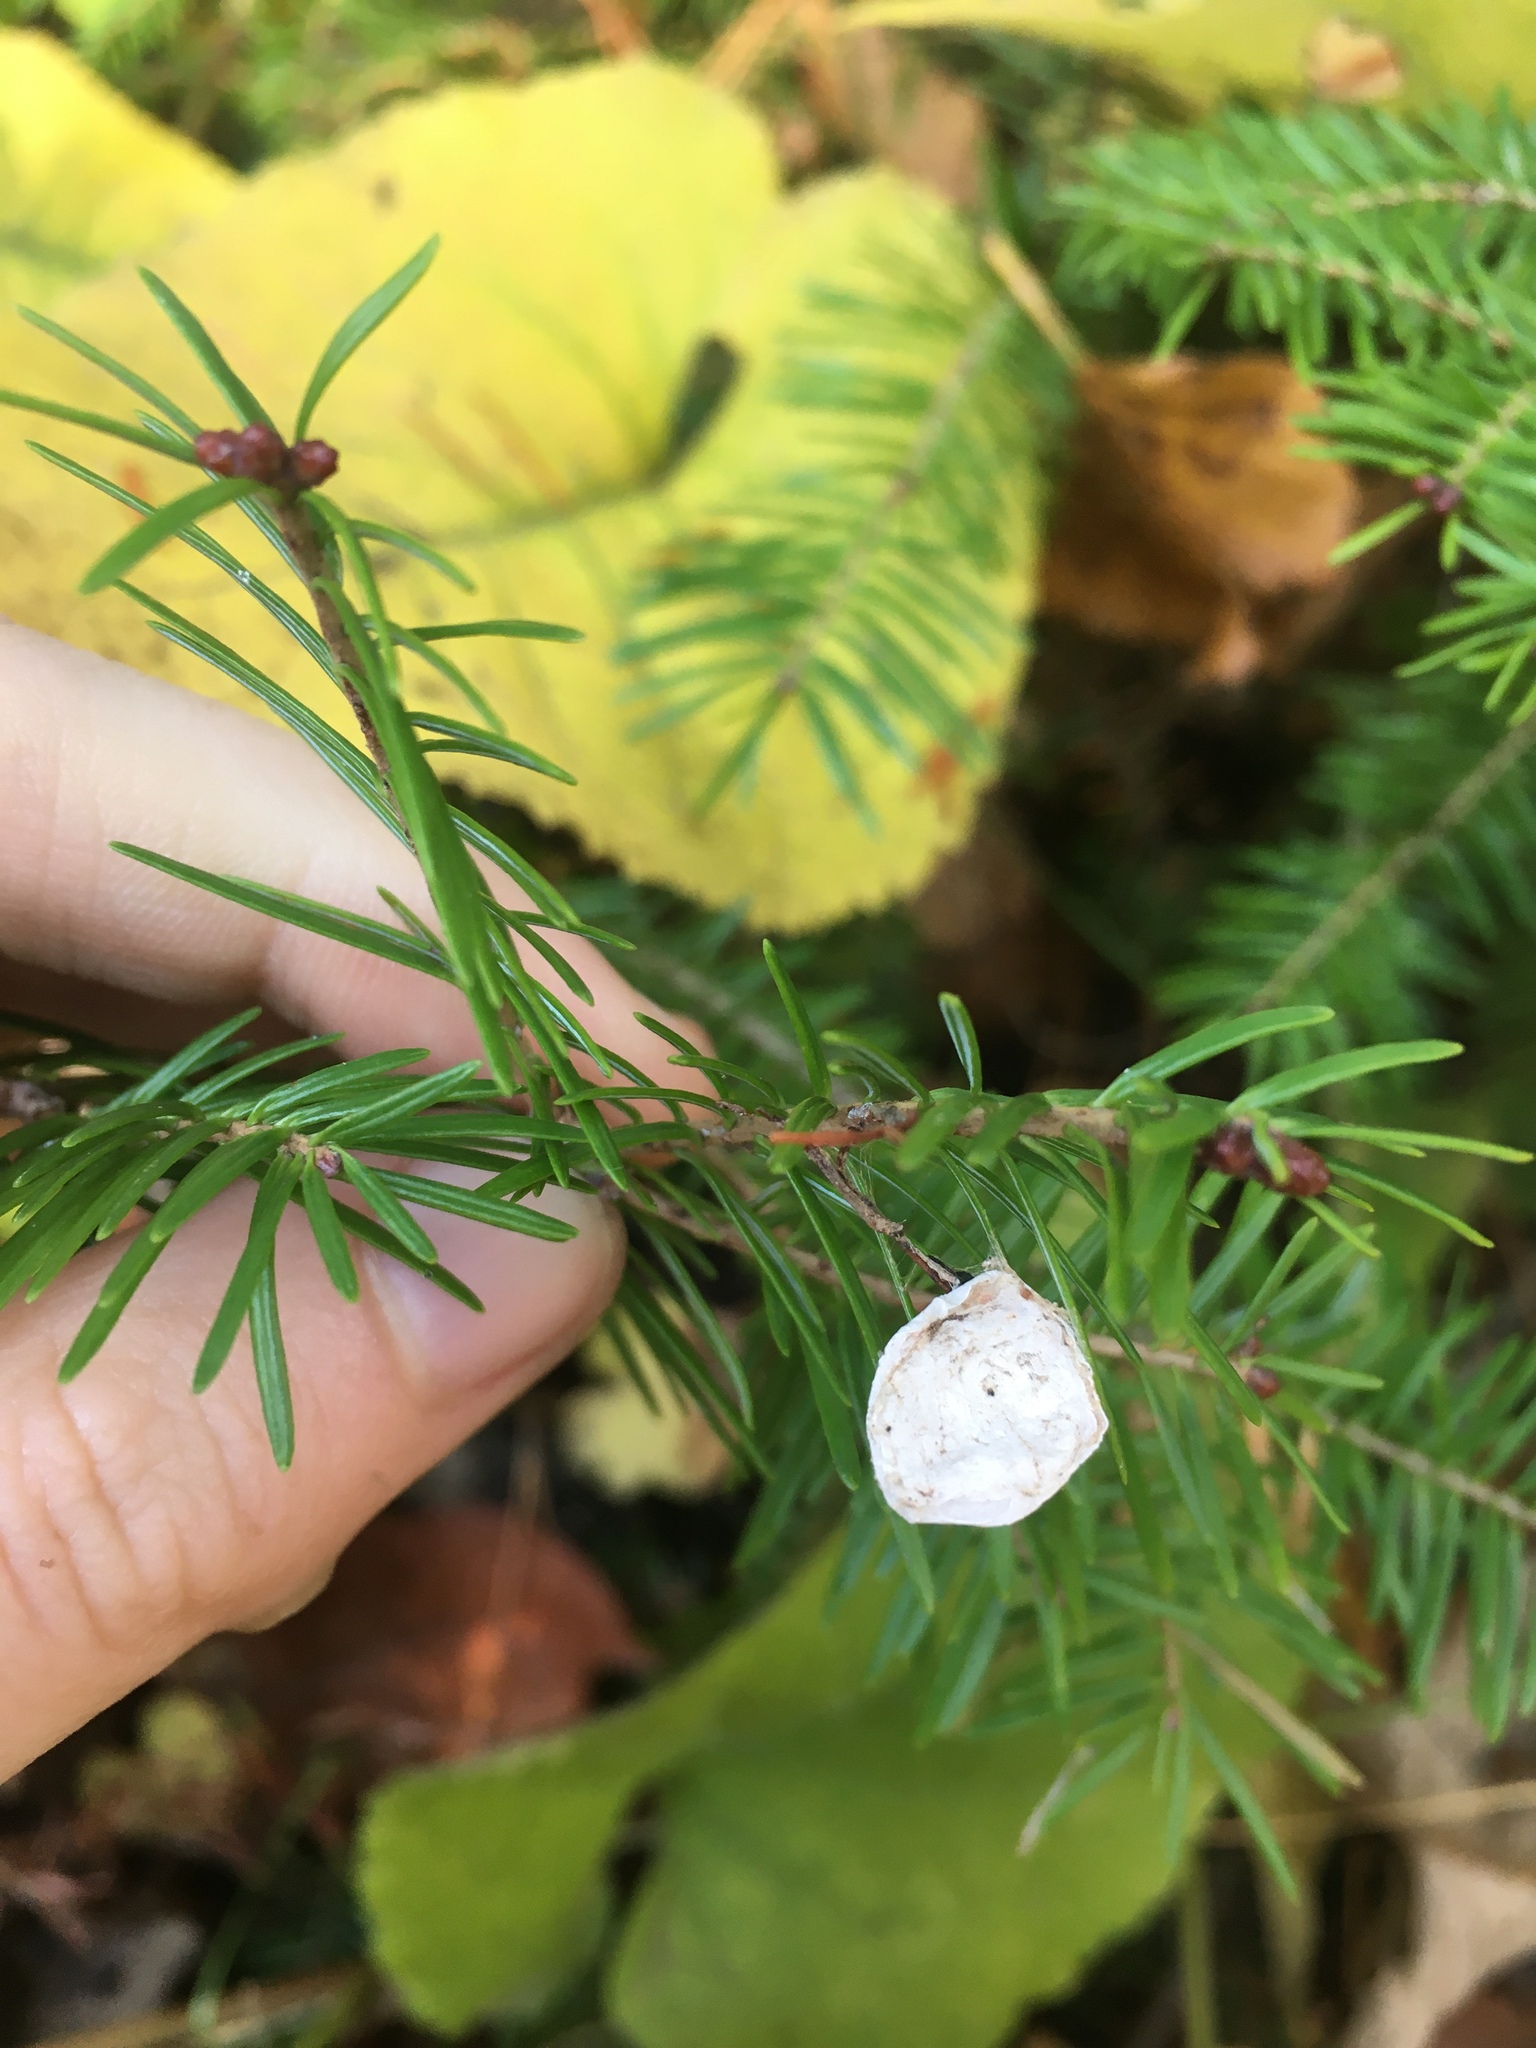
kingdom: Plantae
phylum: Tracheophyta
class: Pinopsida
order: Pinales
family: Pinaceae
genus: Abies
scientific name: Abies balsamea
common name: Balsam fir
